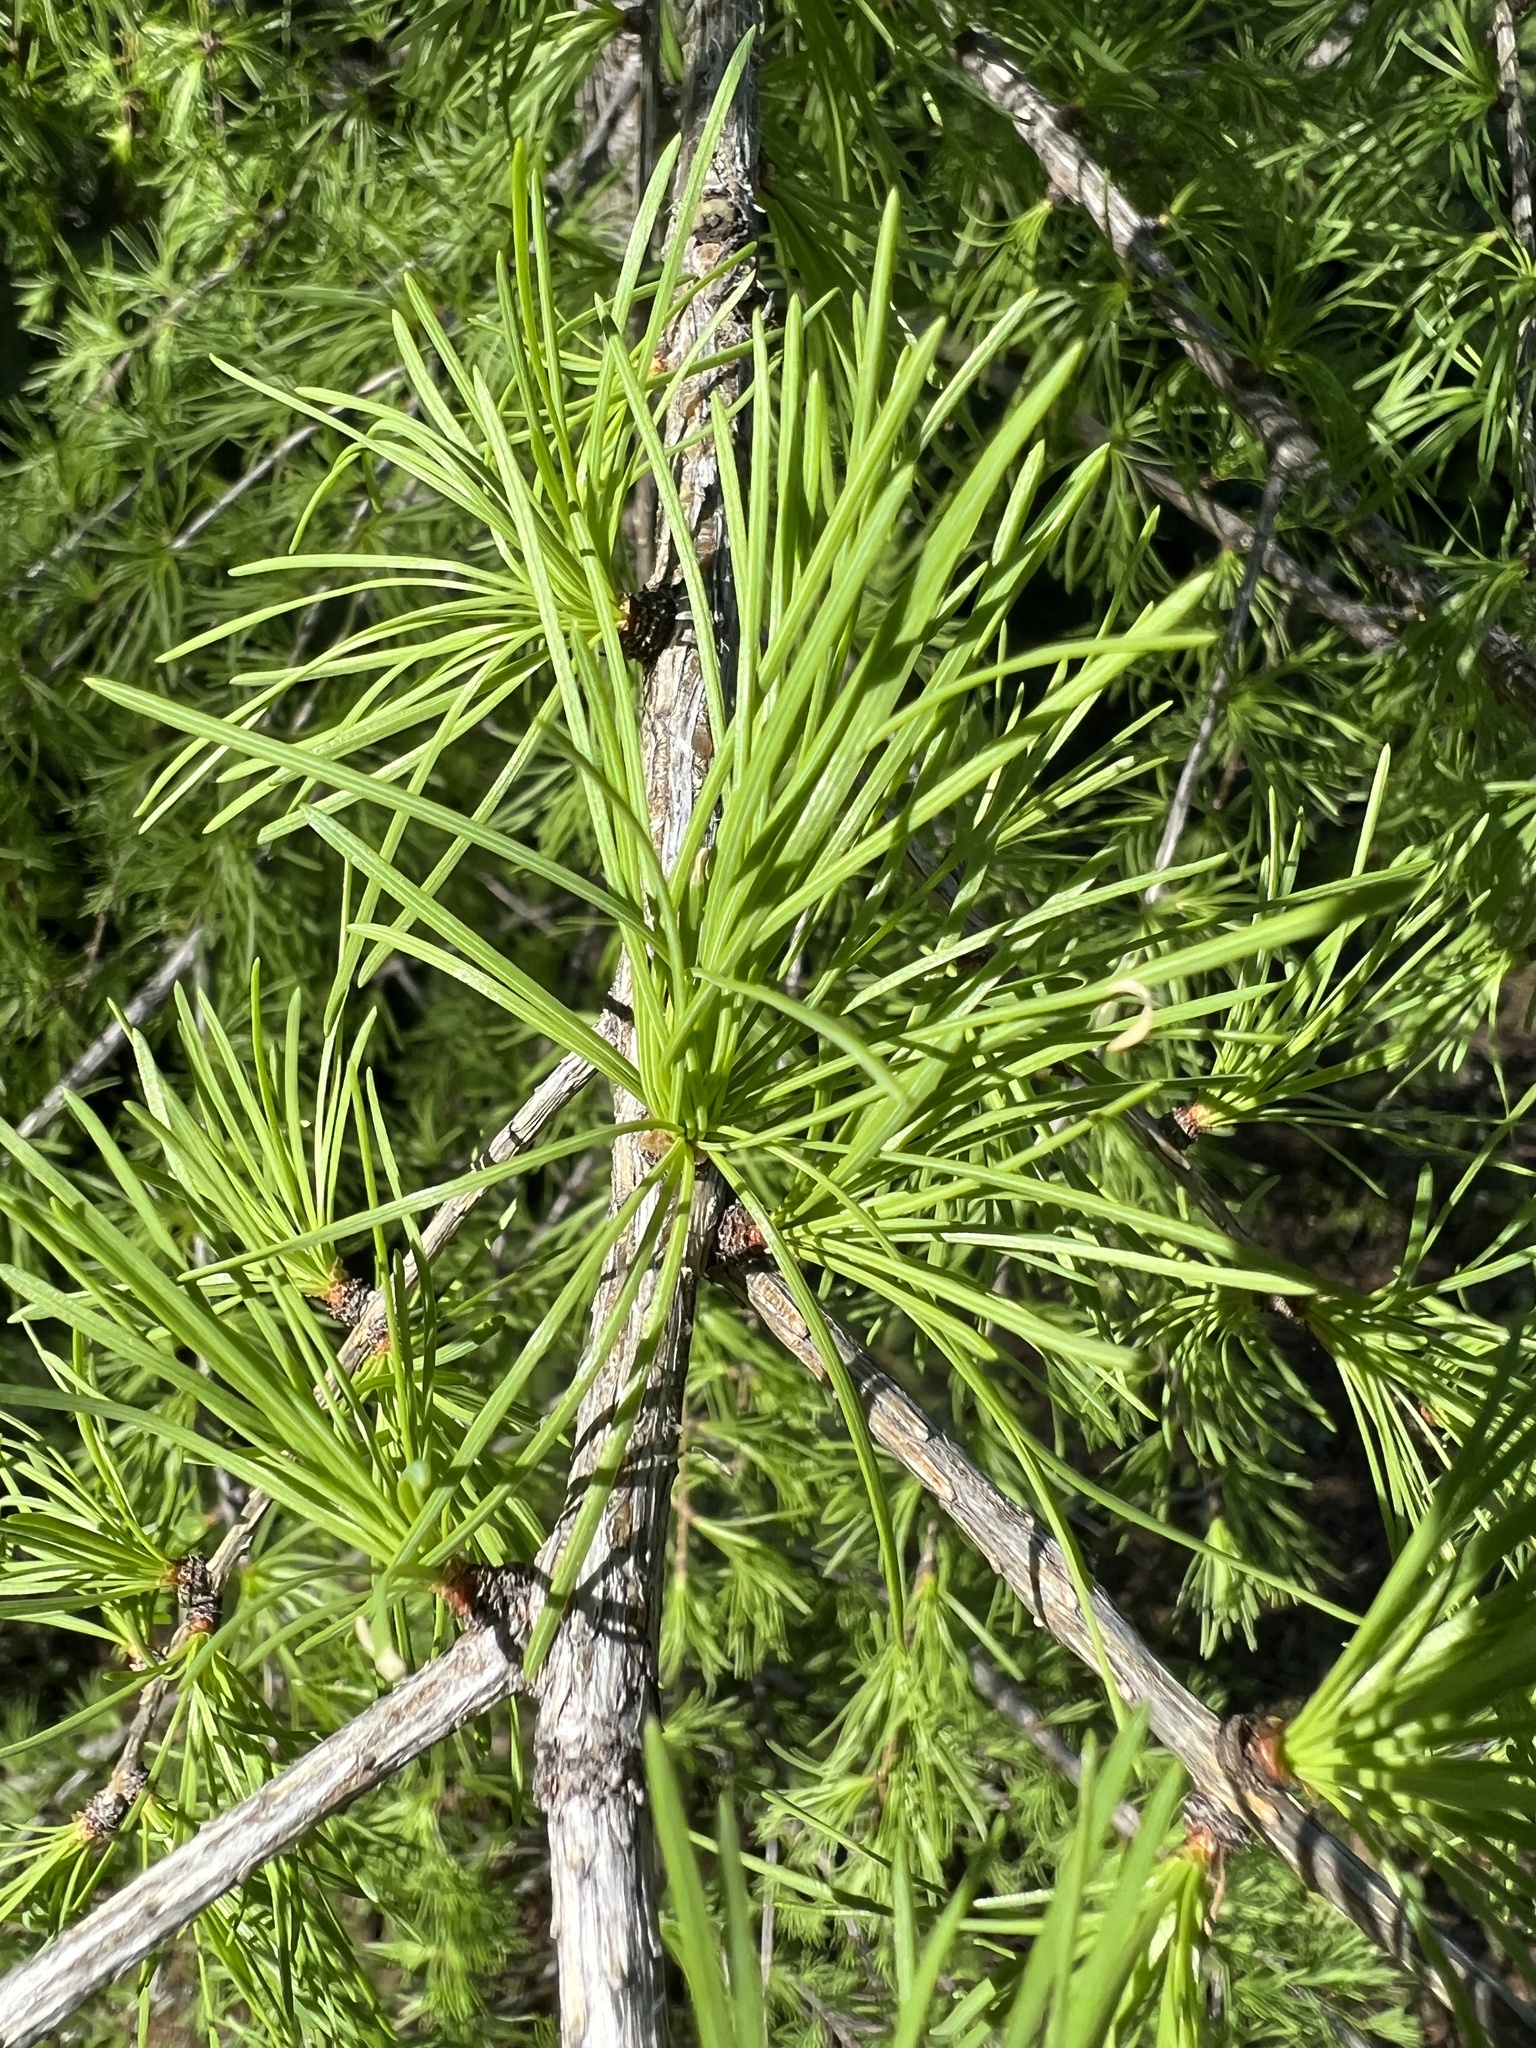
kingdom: Plantae
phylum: Tracheophyta
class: Pinopsida
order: Pinales
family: Pinaceae
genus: Larix
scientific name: Larix occidentalis
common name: Western larch
